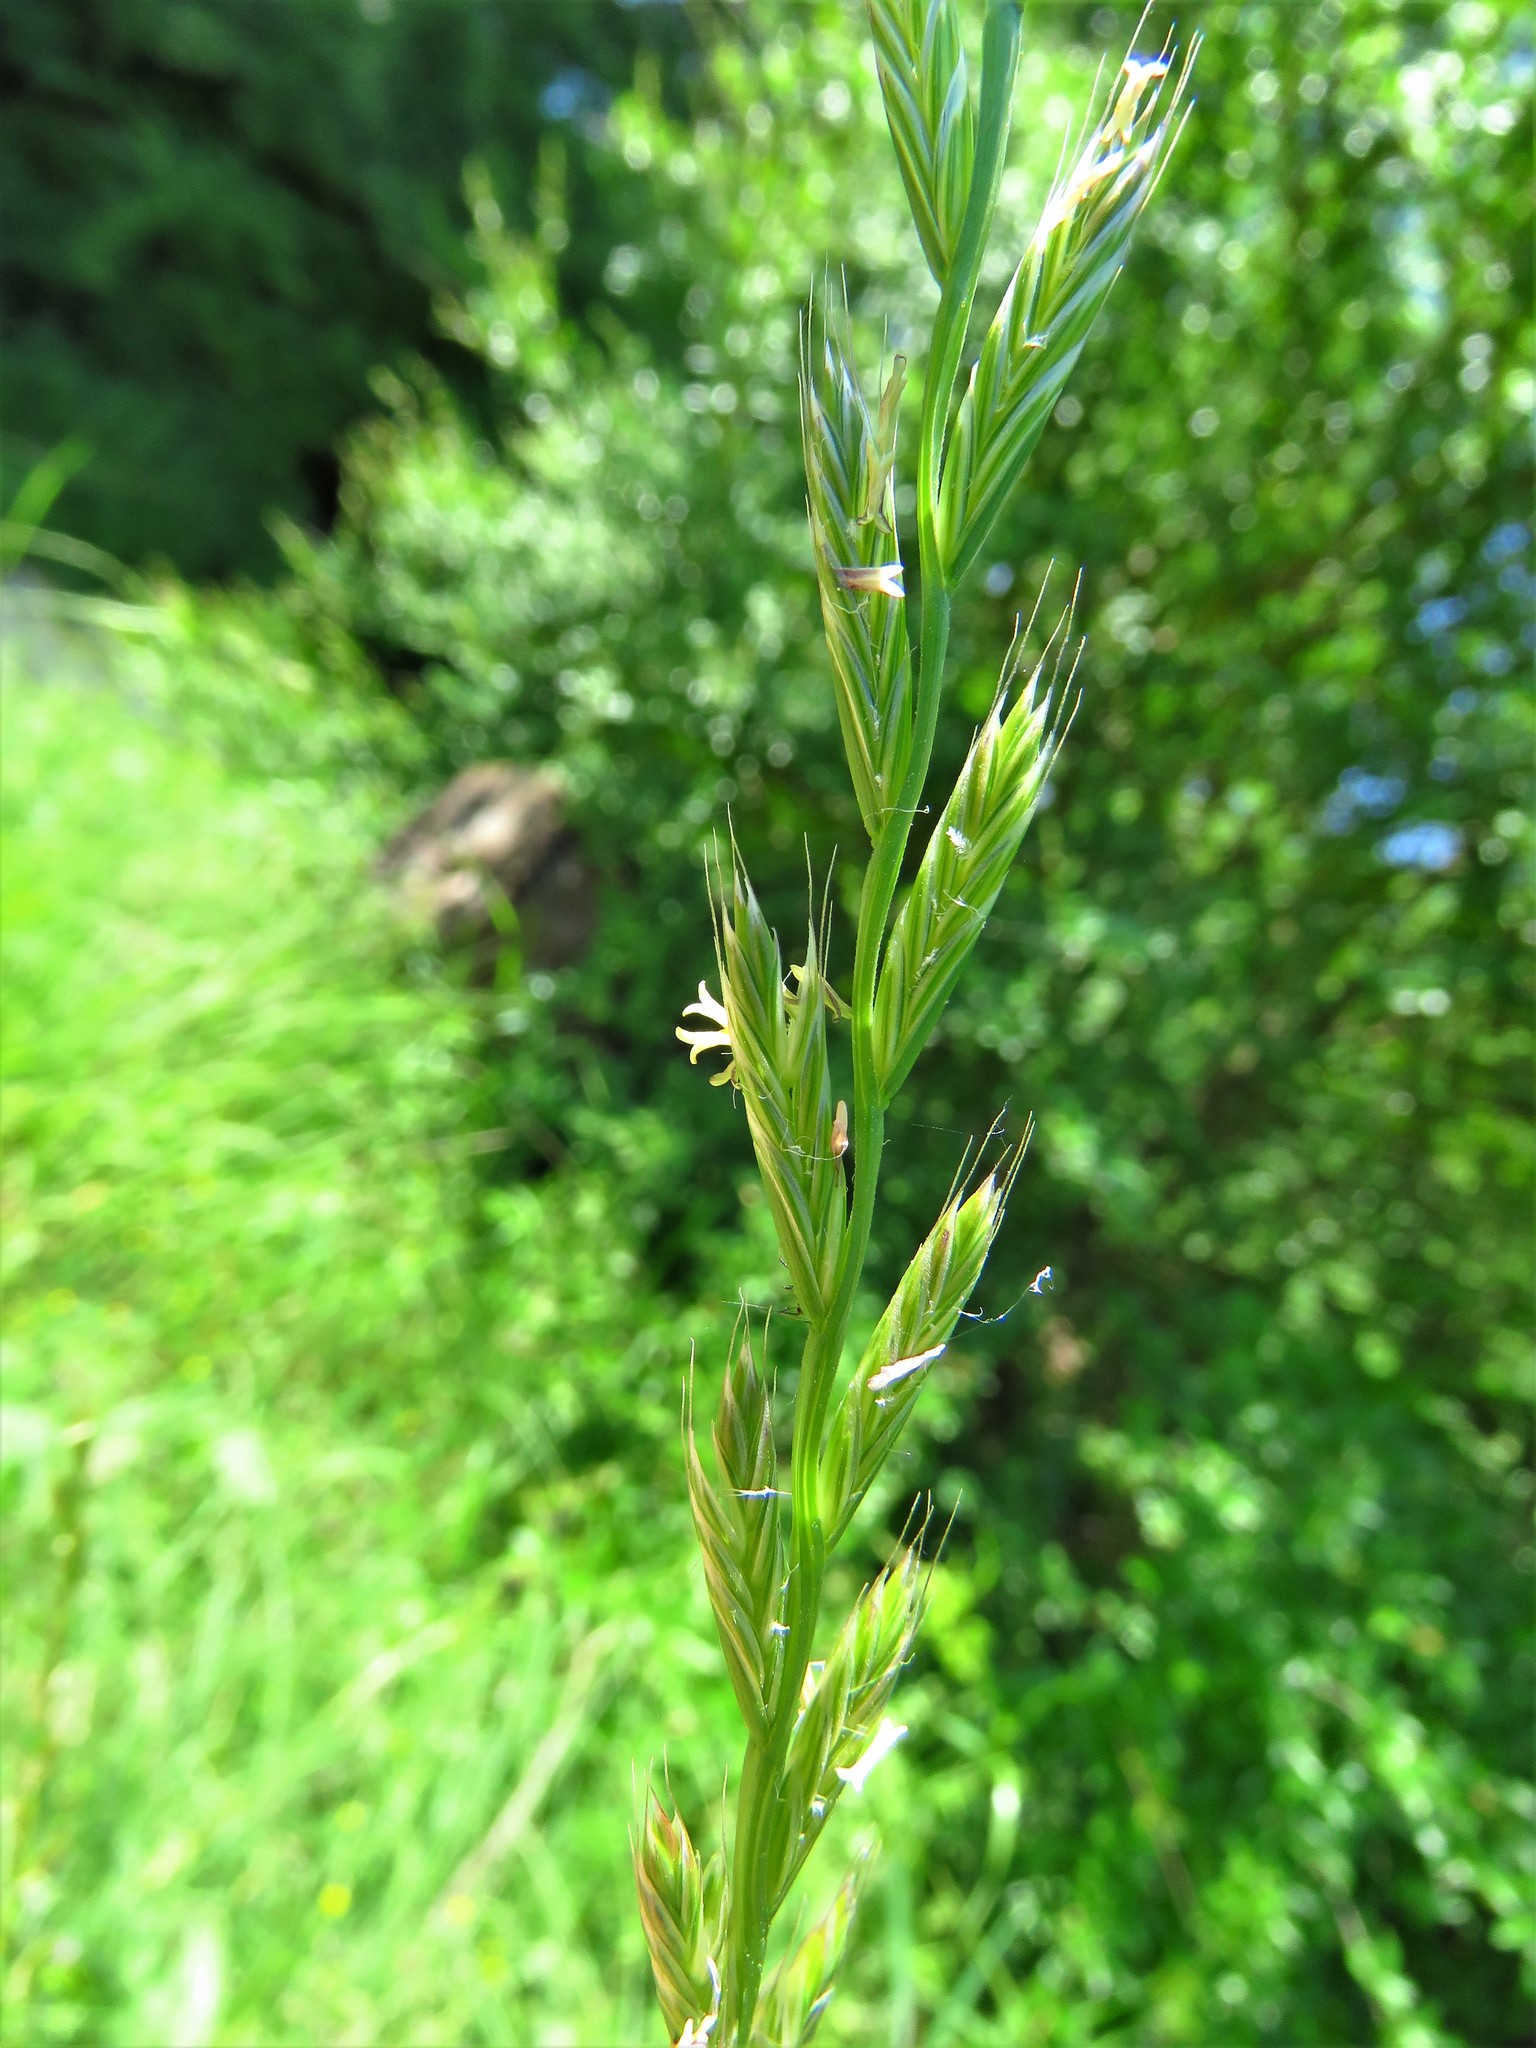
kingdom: Plantae
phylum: Tracheophyta
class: Liliopsida
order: Poales
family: Poaceae
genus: Lolium
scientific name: Lolium perenne
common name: Perennial ryegrass
